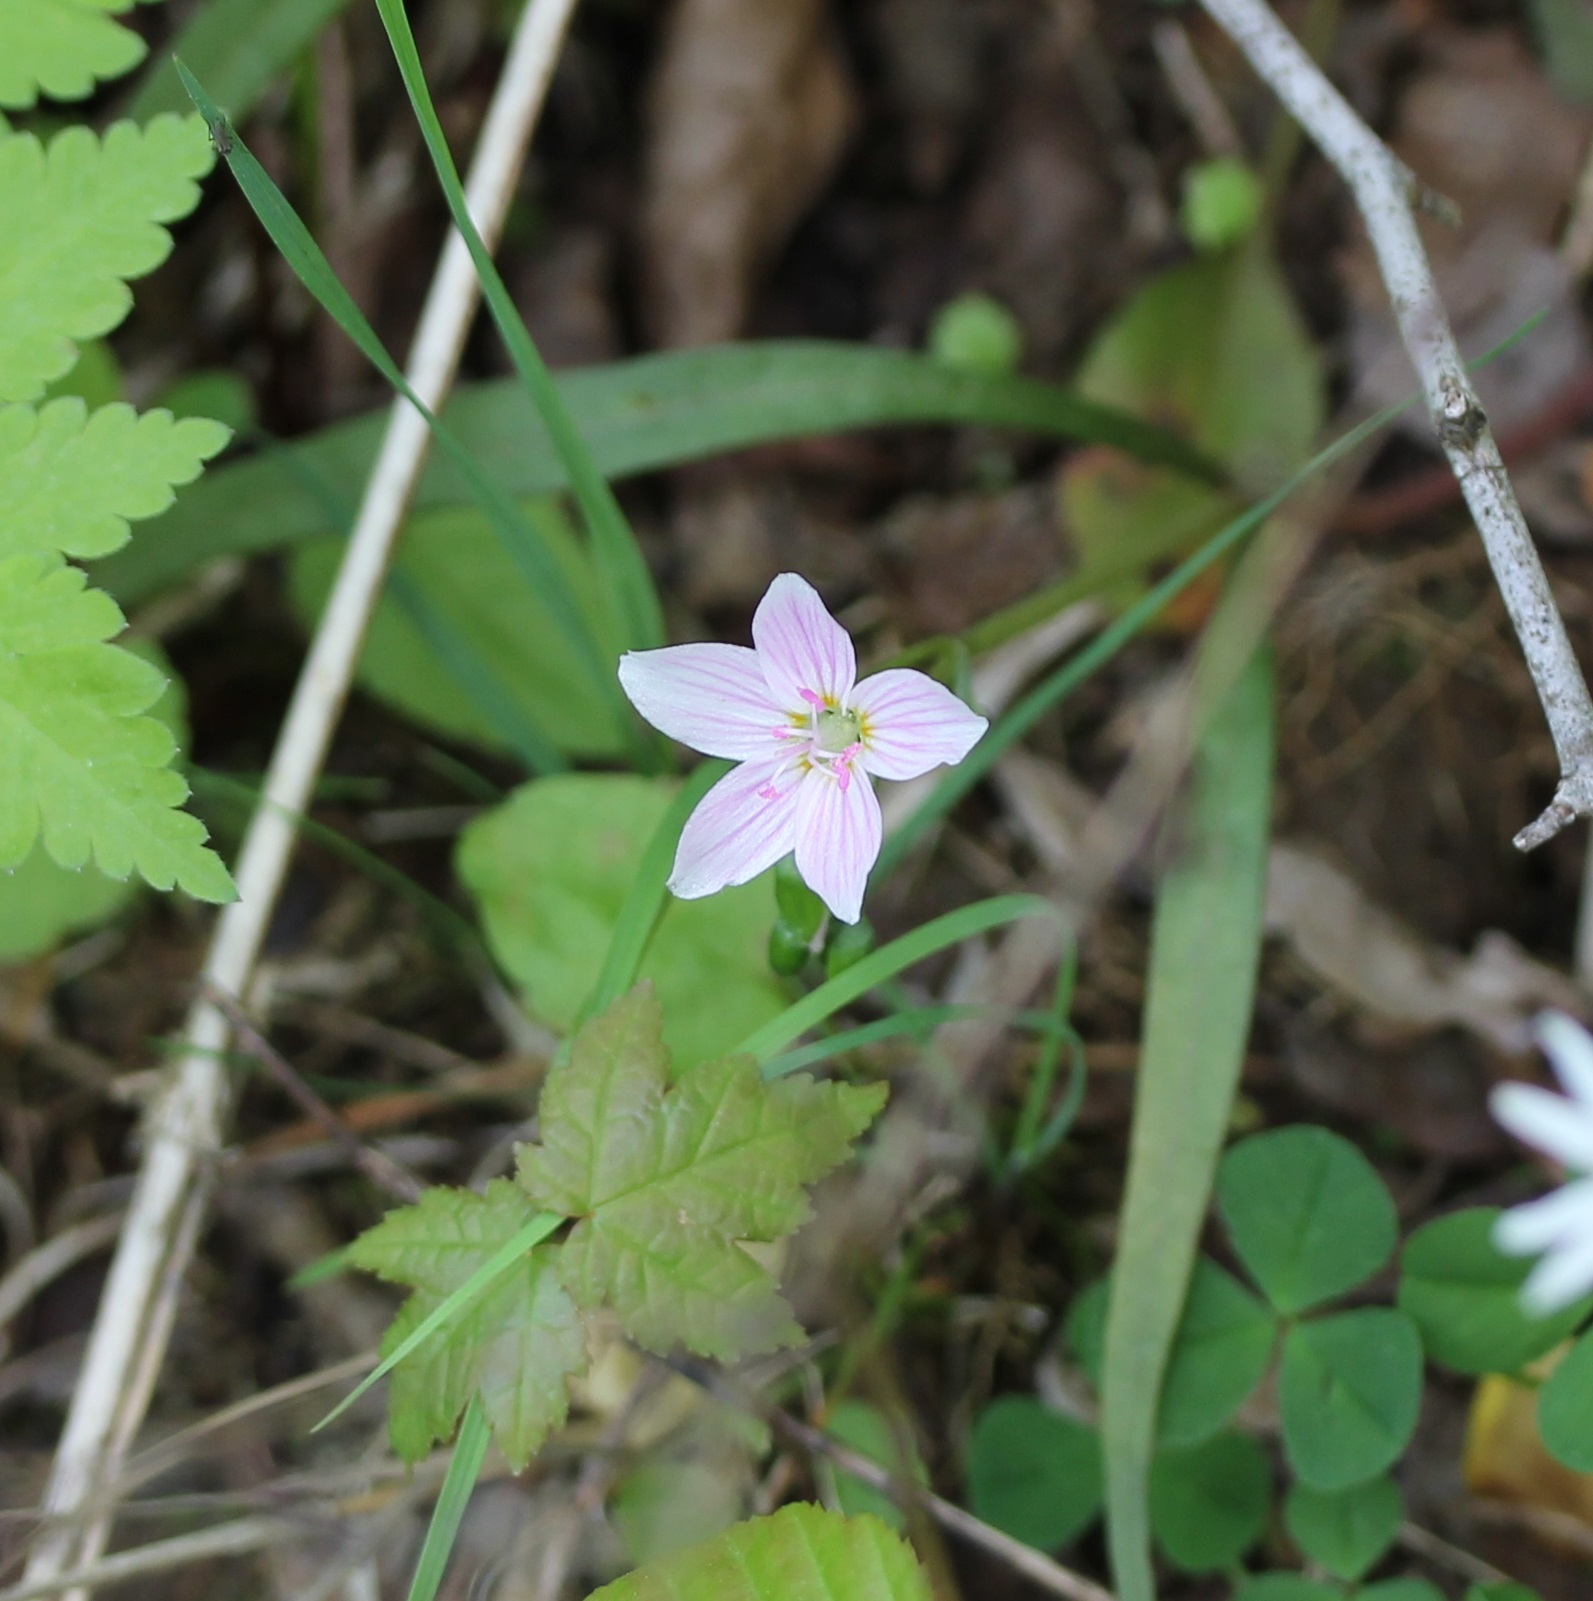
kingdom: Plantae
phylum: Tracheophyta
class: Magnoliopsida
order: Caryophyllales
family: Montiaceae
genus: Claytonia
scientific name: Claytonia virginica
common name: Virginia springbeauty
